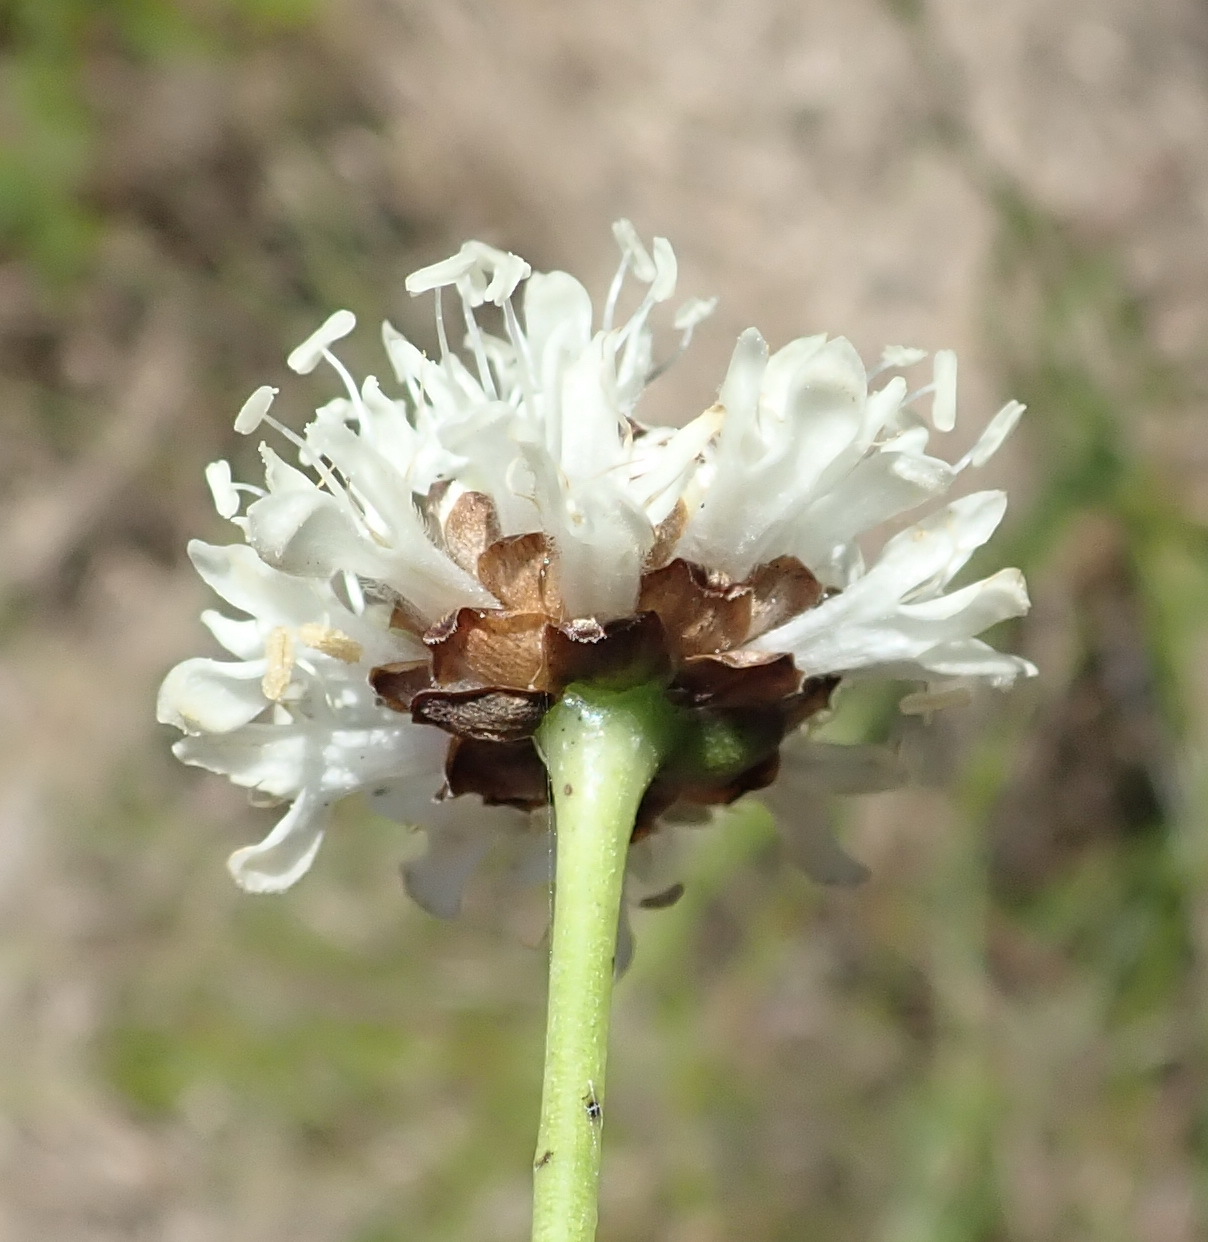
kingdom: Plantae
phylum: Tracheophyta
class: Magnoliopsida
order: Dipsacales
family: Caprifoliaceae
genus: Cephalaria
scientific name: Cephalaria humilis
